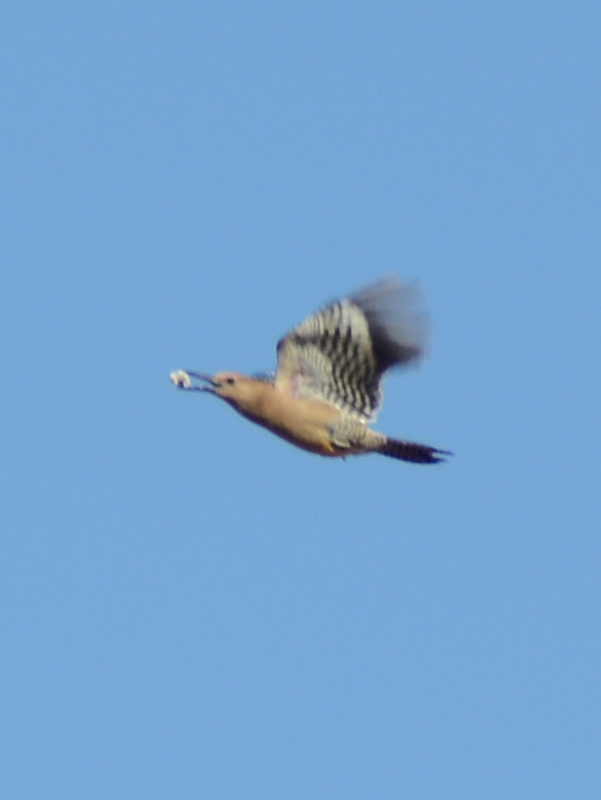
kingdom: Animalia
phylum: Chordata
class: Aves
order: Piciformes
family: Picidae
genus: Melanerpes
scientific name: Melanerpes uropygialis
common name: Gila woodpecker
